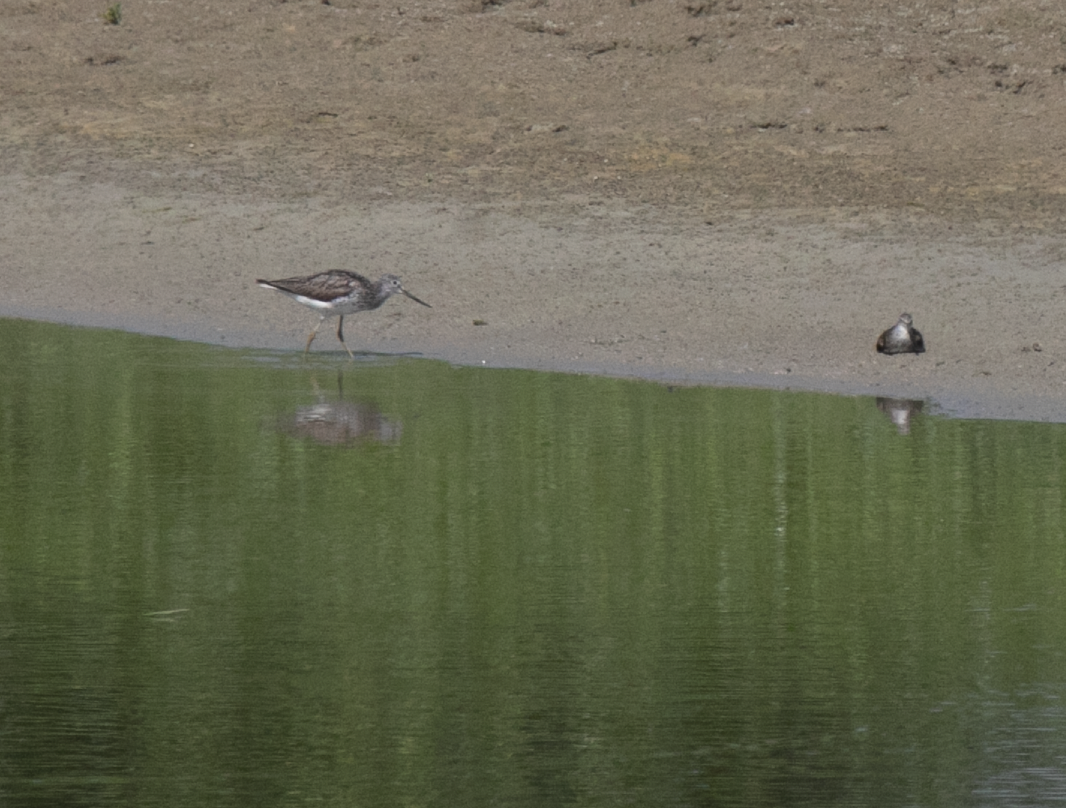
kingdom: Animalia
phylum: Chordata
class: Aves
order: Charadriiformes
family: Scolopacidae
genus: Tringa
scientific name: Tringa nebularia
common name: Common greenshank
